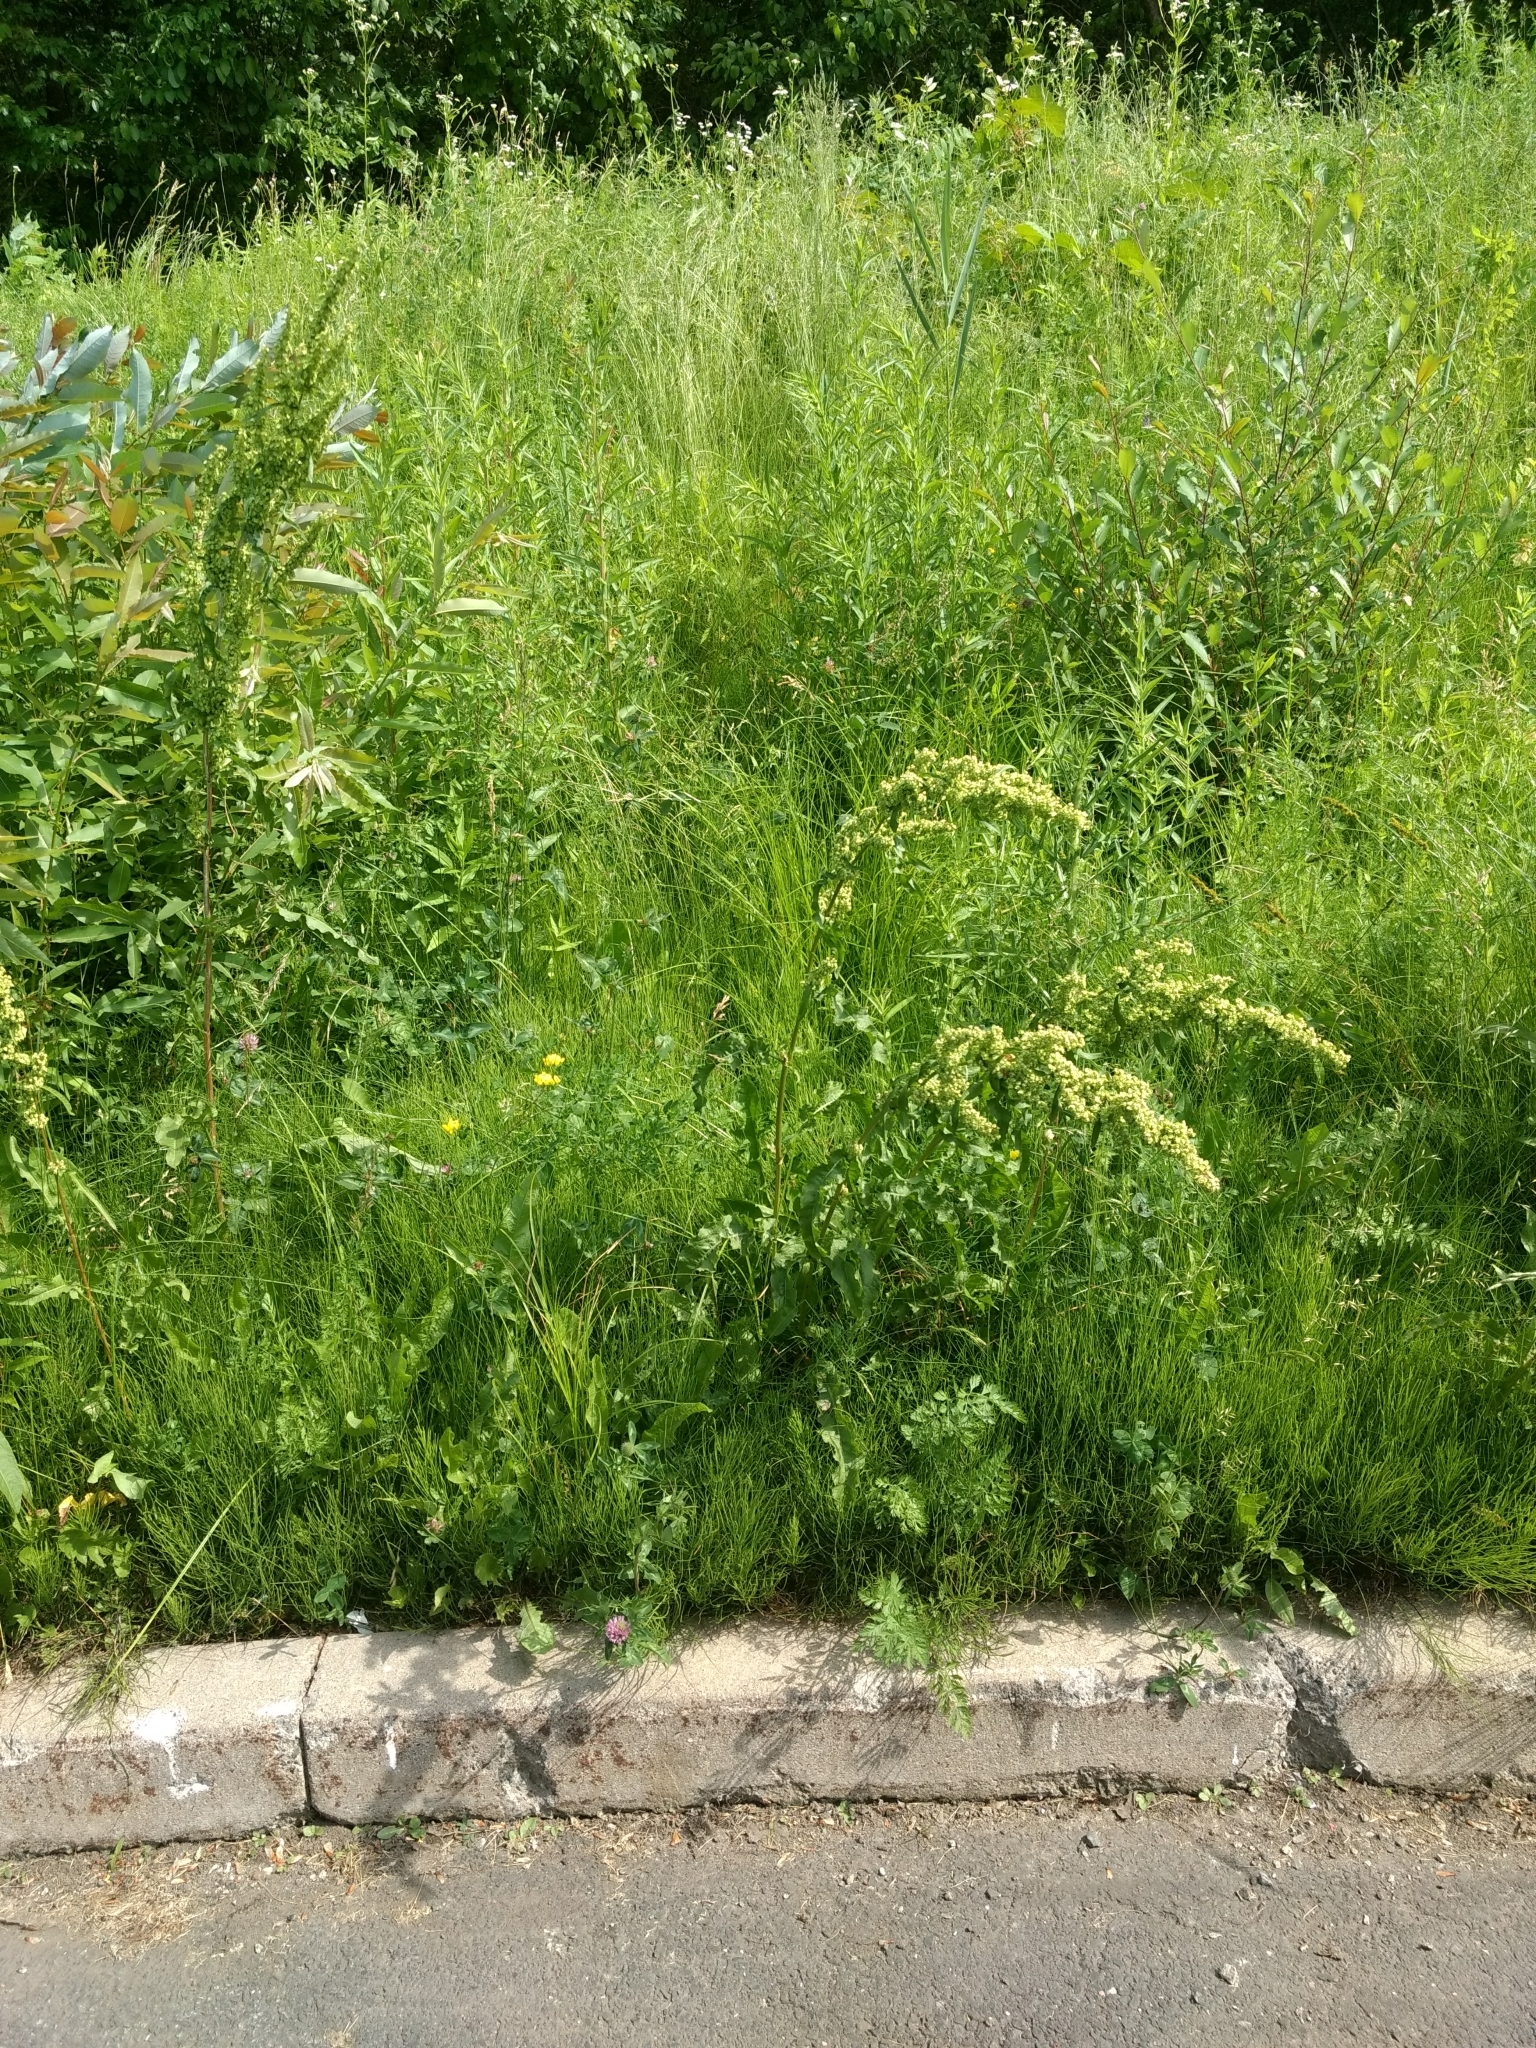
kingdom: Plantae
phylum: Tracheophyta
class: Magnoliopsida
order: Caryophyllales
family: Polygonaceae
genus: Rumex
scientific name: Rumex crispus
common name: Curled dock
